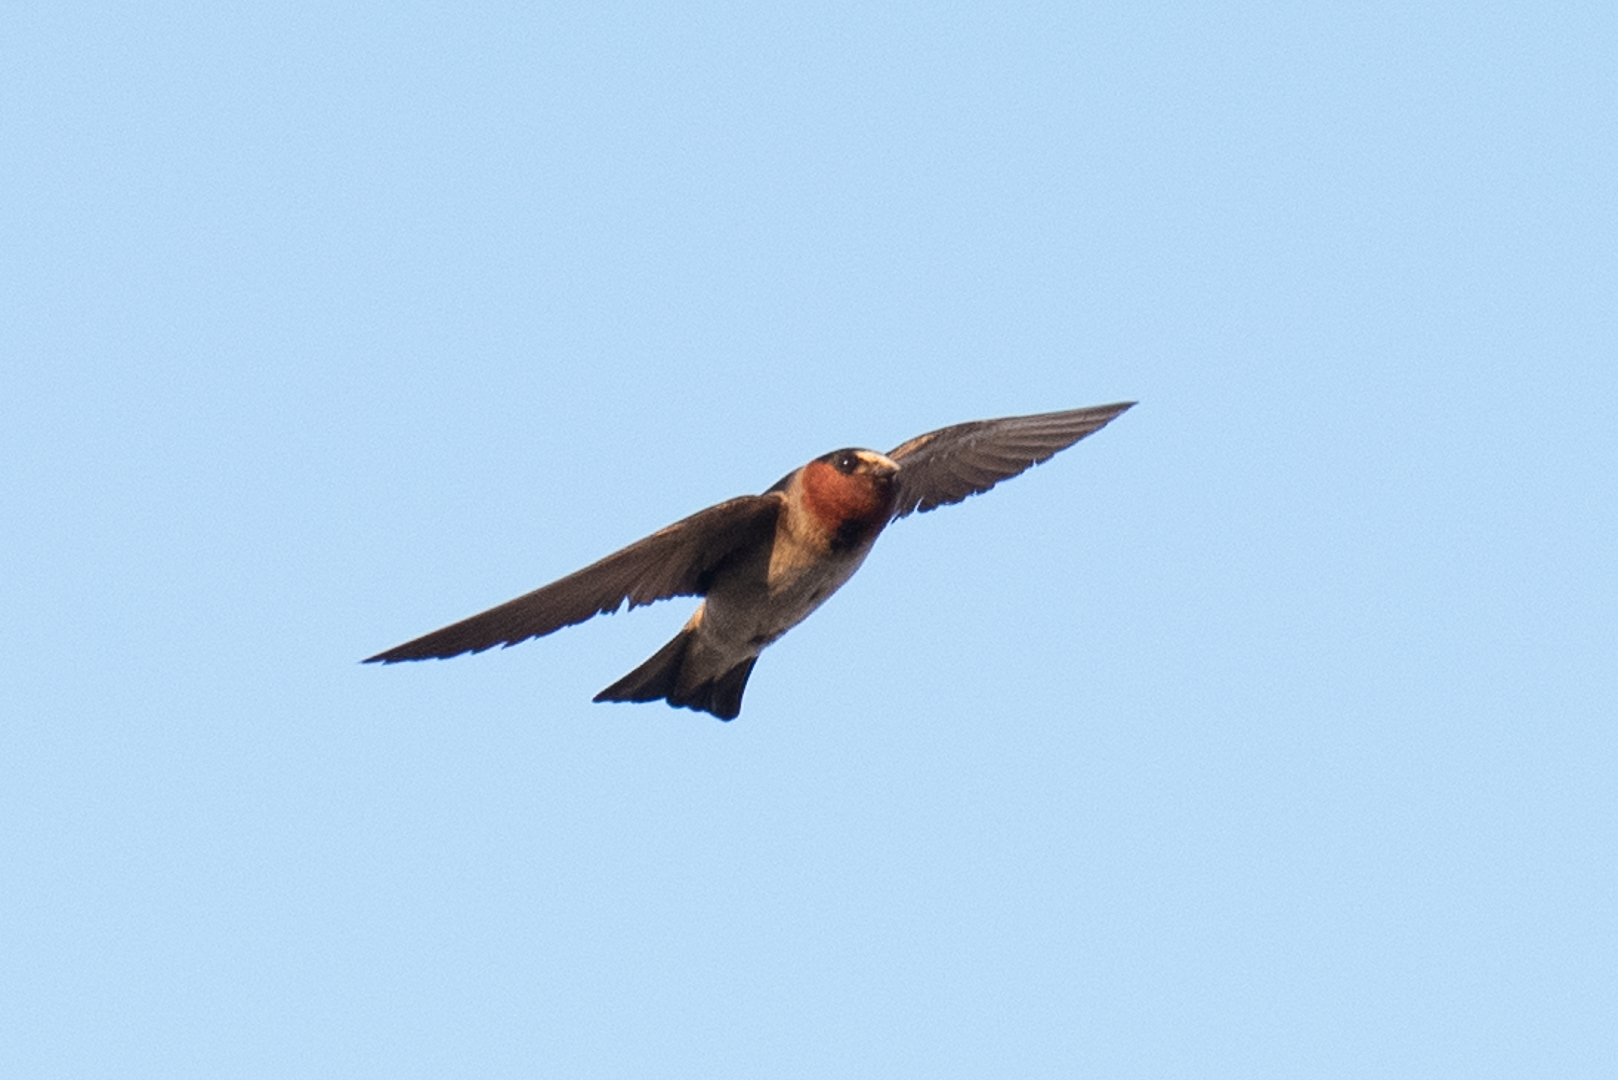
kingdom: Animalia
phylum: Chordata
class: Aves
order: Passeriformes
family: Hirundinidae
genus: Petrochelidon
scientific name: Petrochelidon pyrrhonota
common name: American cliff swallow
